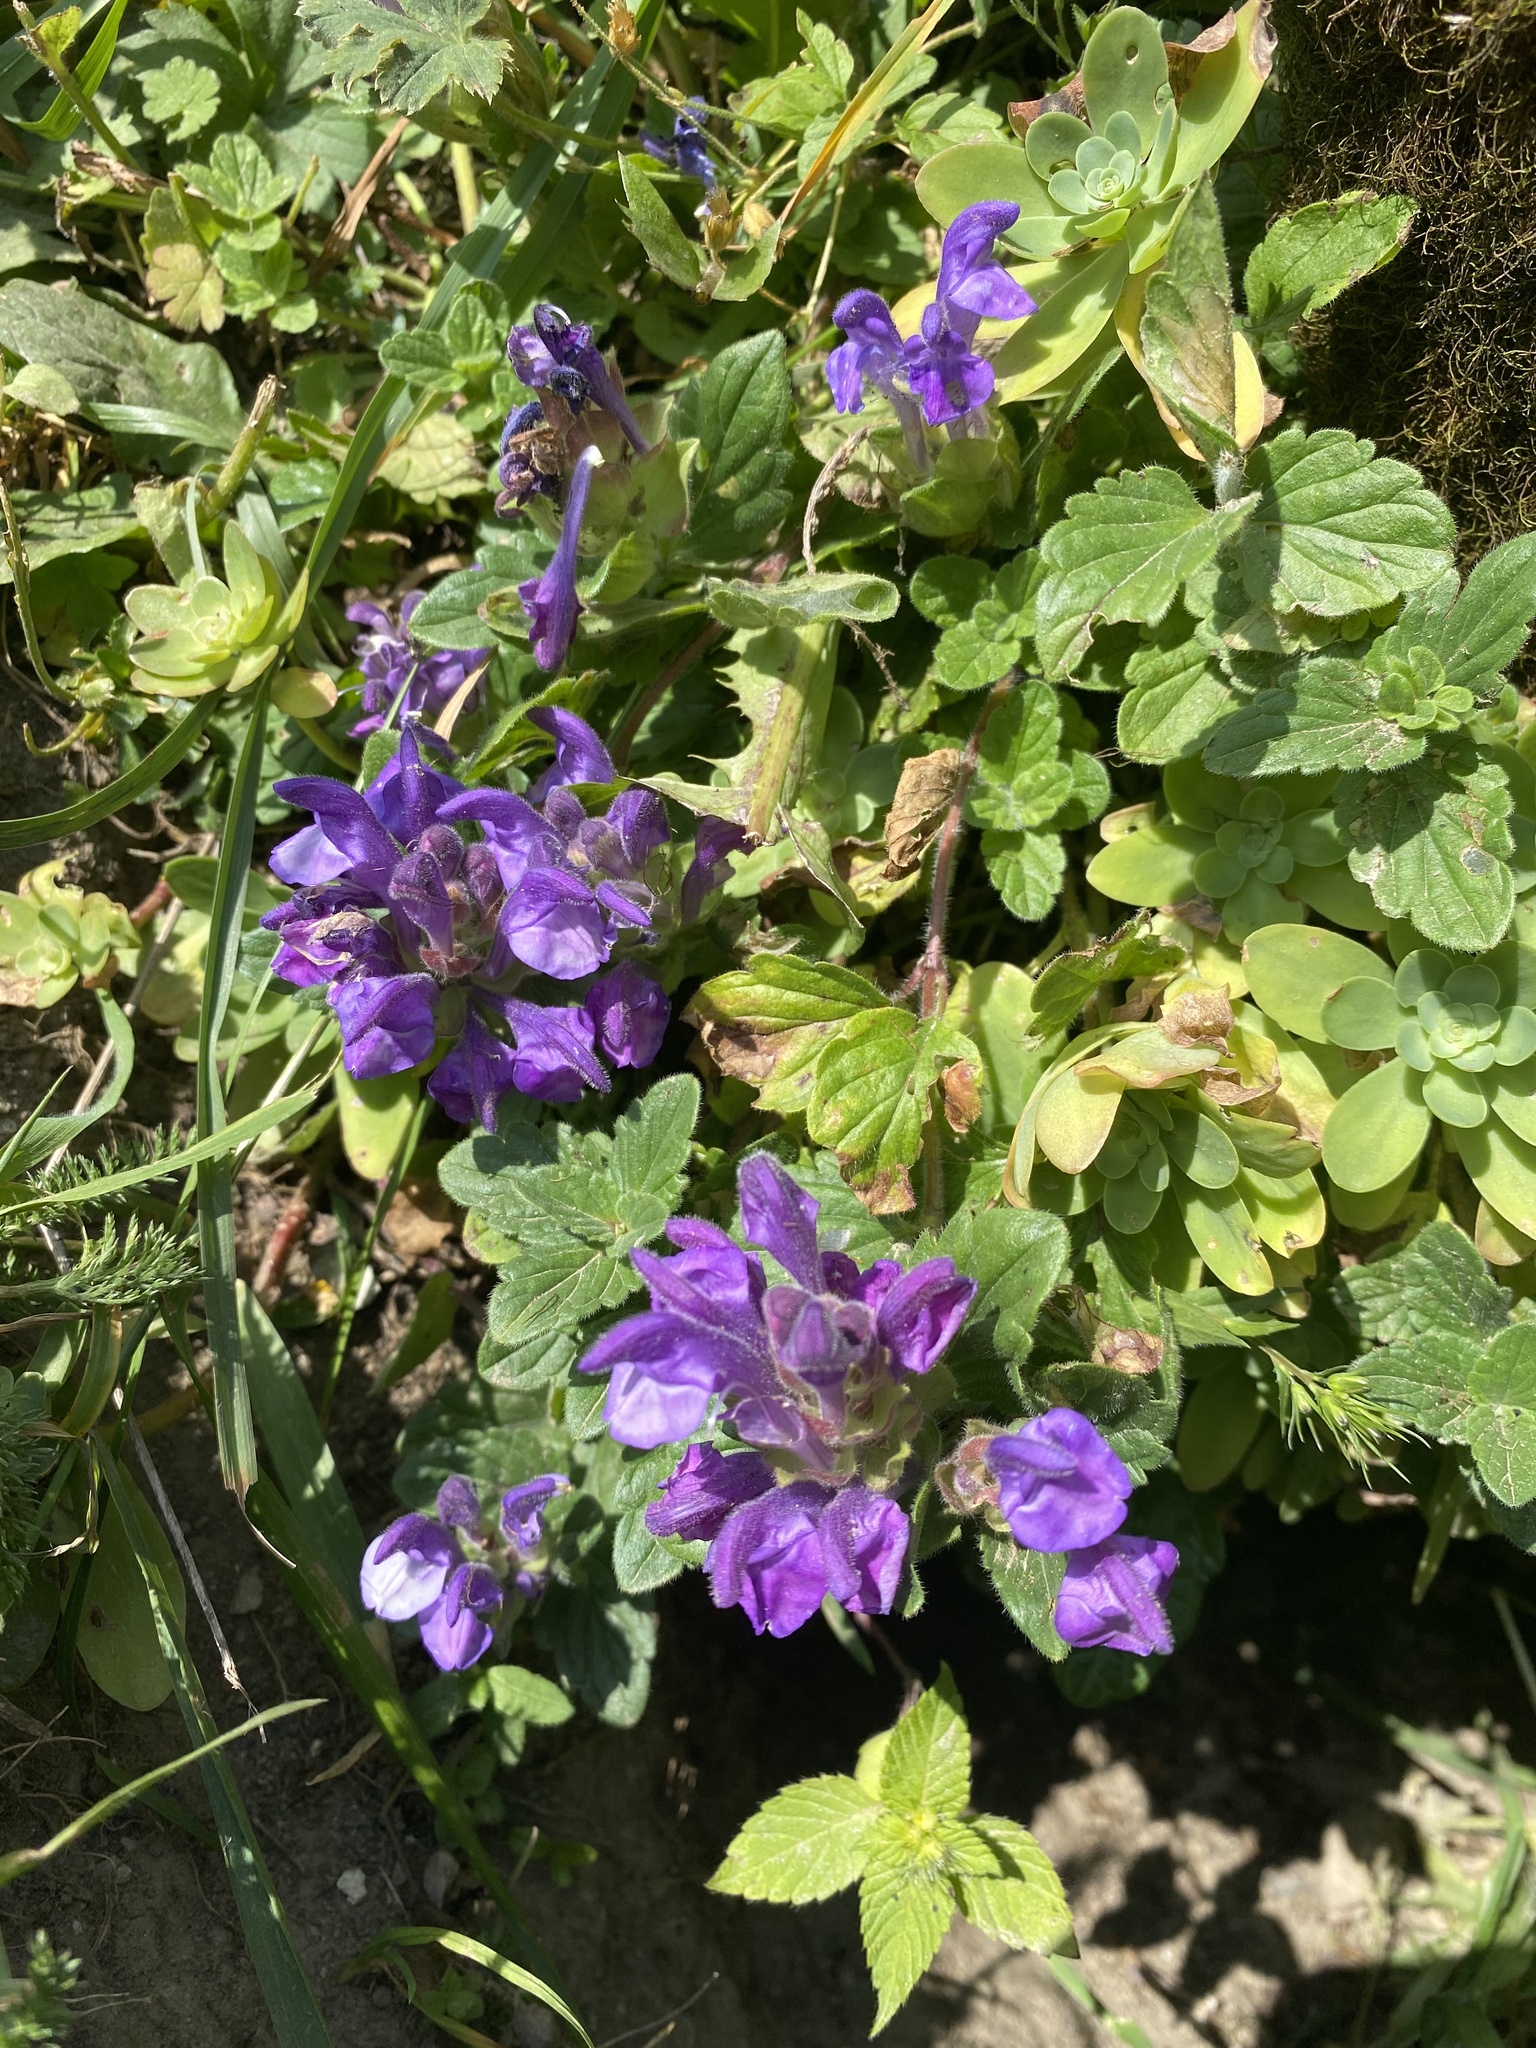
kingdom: Plantae
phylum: Tracheophyta
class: Magnoliopsida
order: Lamiales
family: Lamiaceae
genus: Scutellaria
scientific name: Scutellaria alpina
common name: Alpine scullcap
